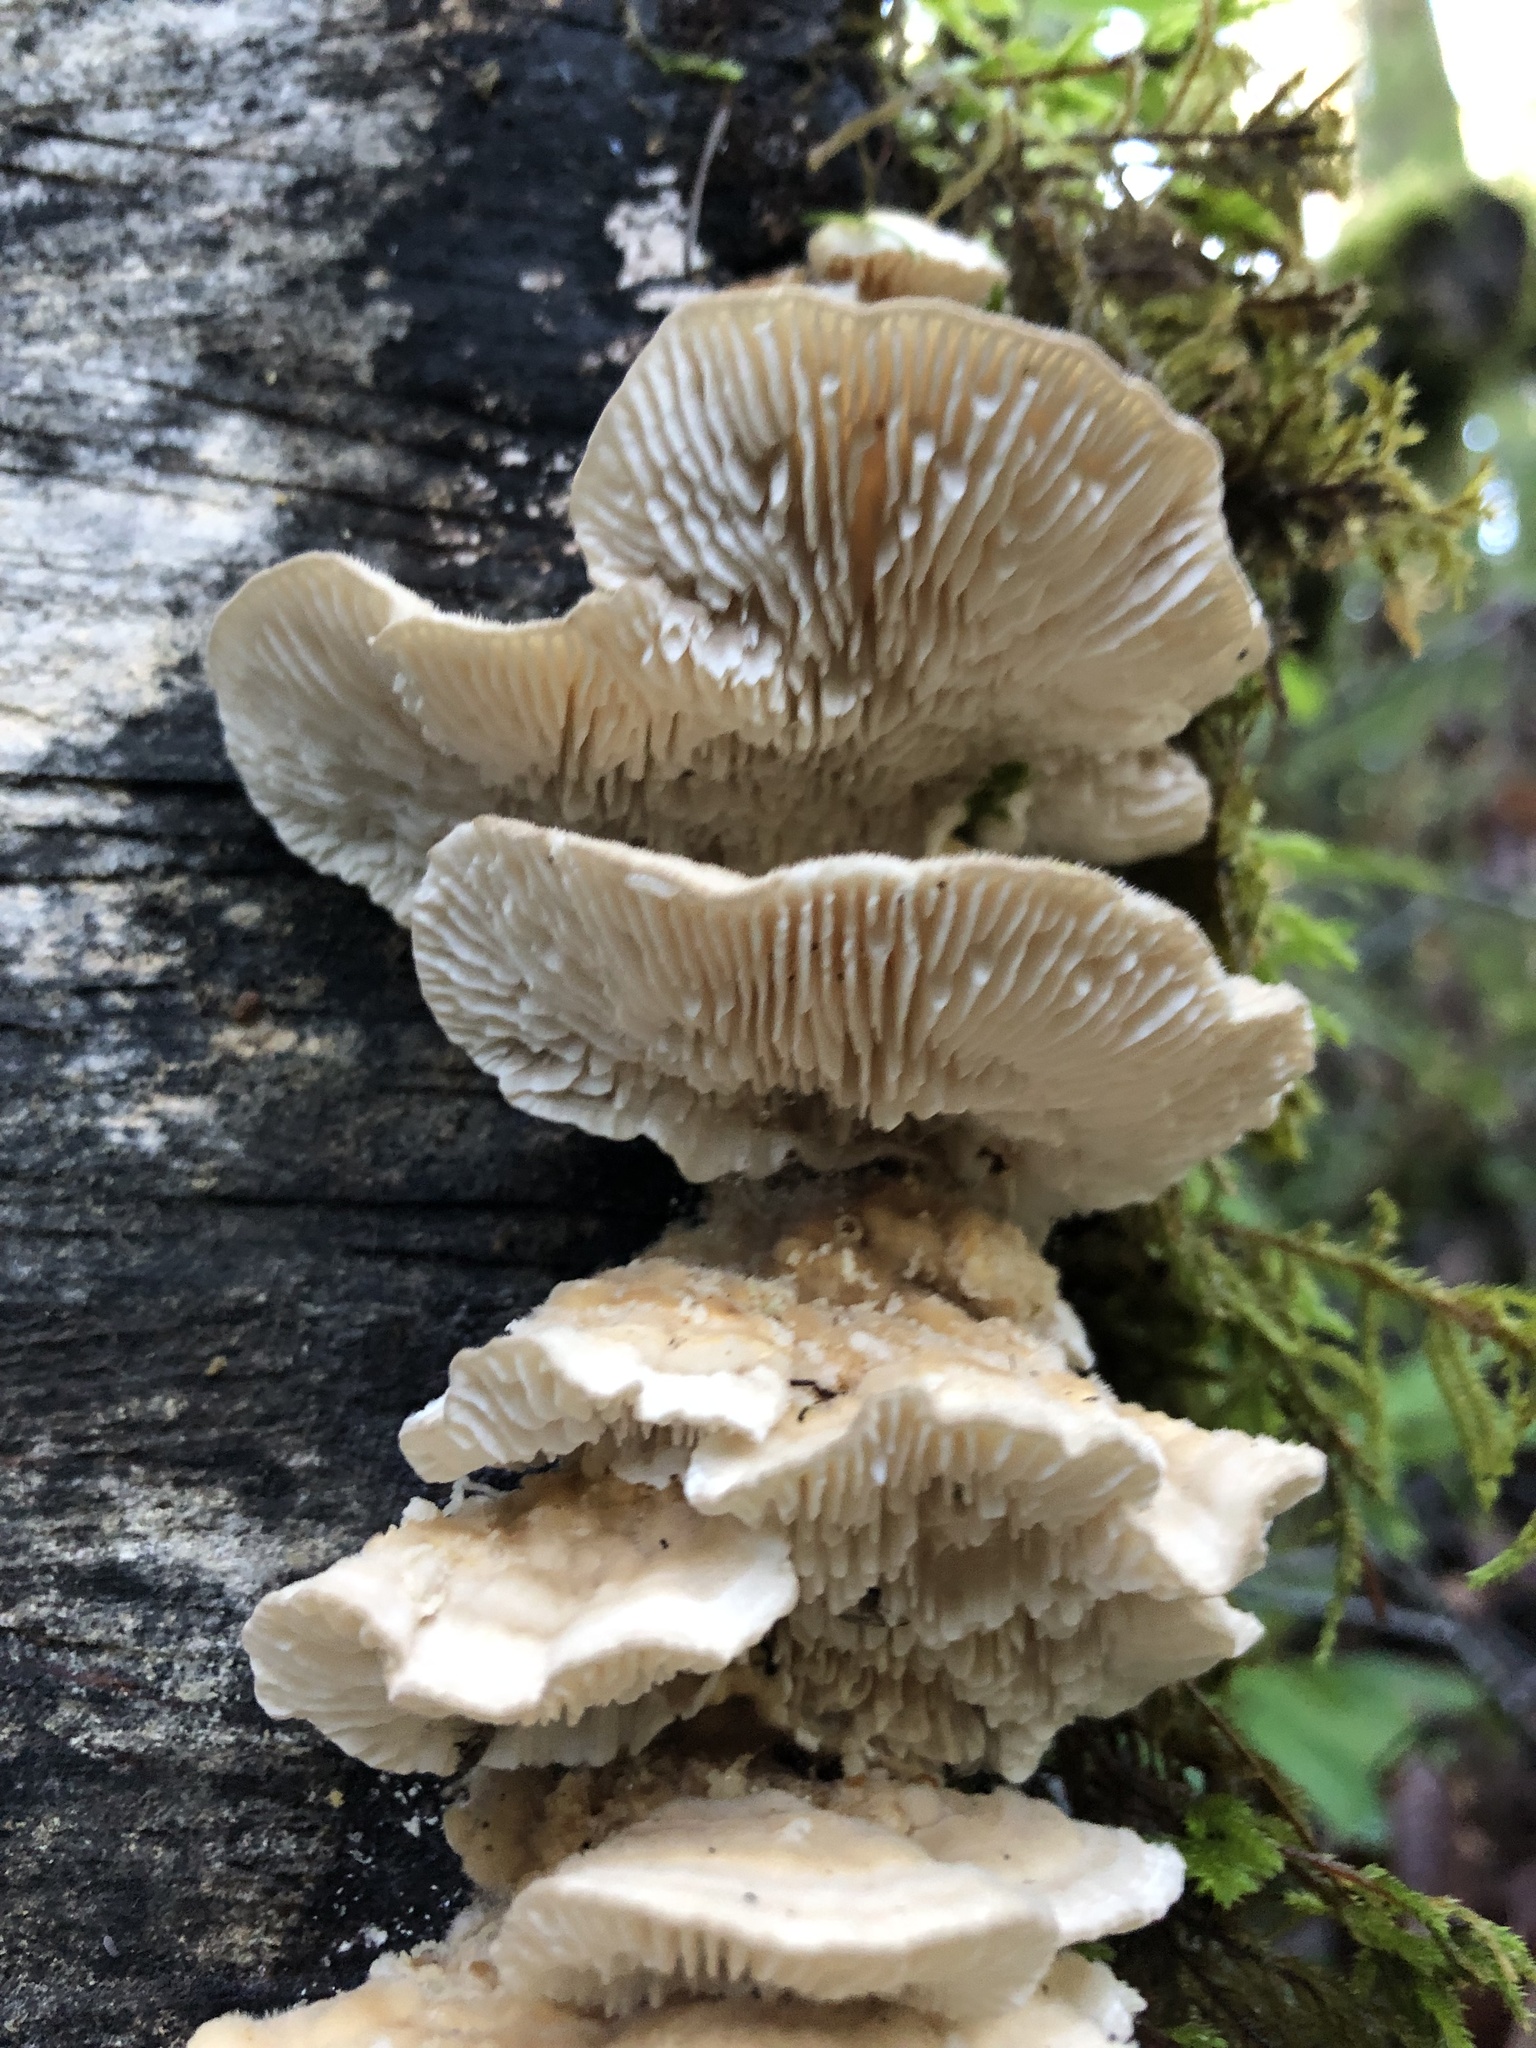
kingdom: Fungi
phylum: Basidiomycota
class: Agaricomycetes
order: Polyporales
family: Polyporaceae
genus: Lenzites
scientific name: Lenzites betulinus
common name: Birch mazegill
